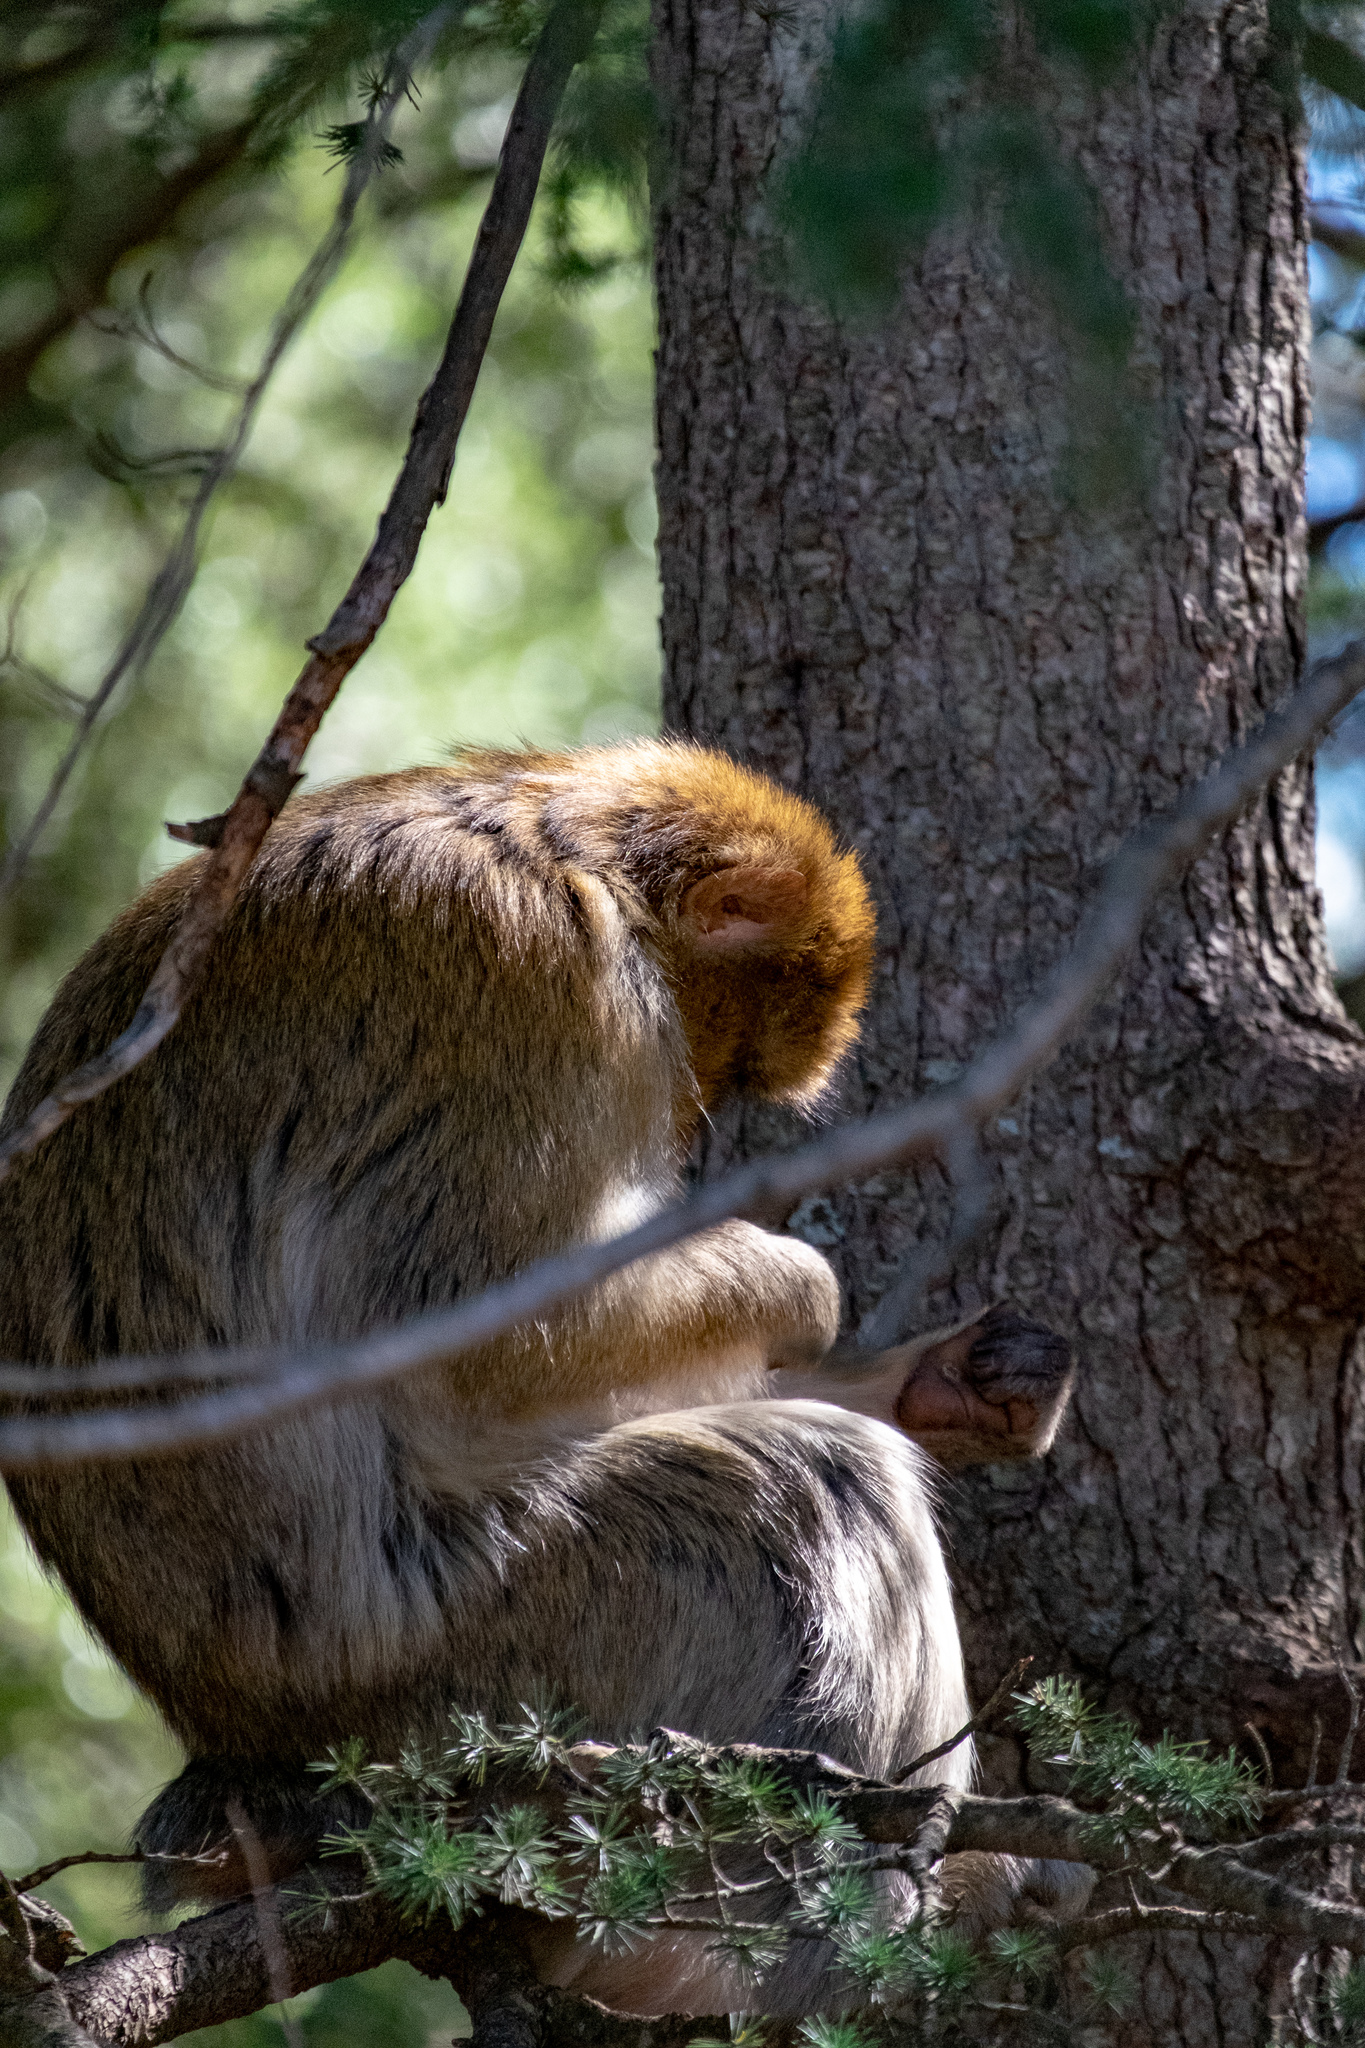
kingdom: Animalia
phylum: Chordata
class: Mammalia
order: Primates
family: Cercopithecidae
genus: Macaca
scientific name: Macaca sylvanus
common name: Barbary macaque
